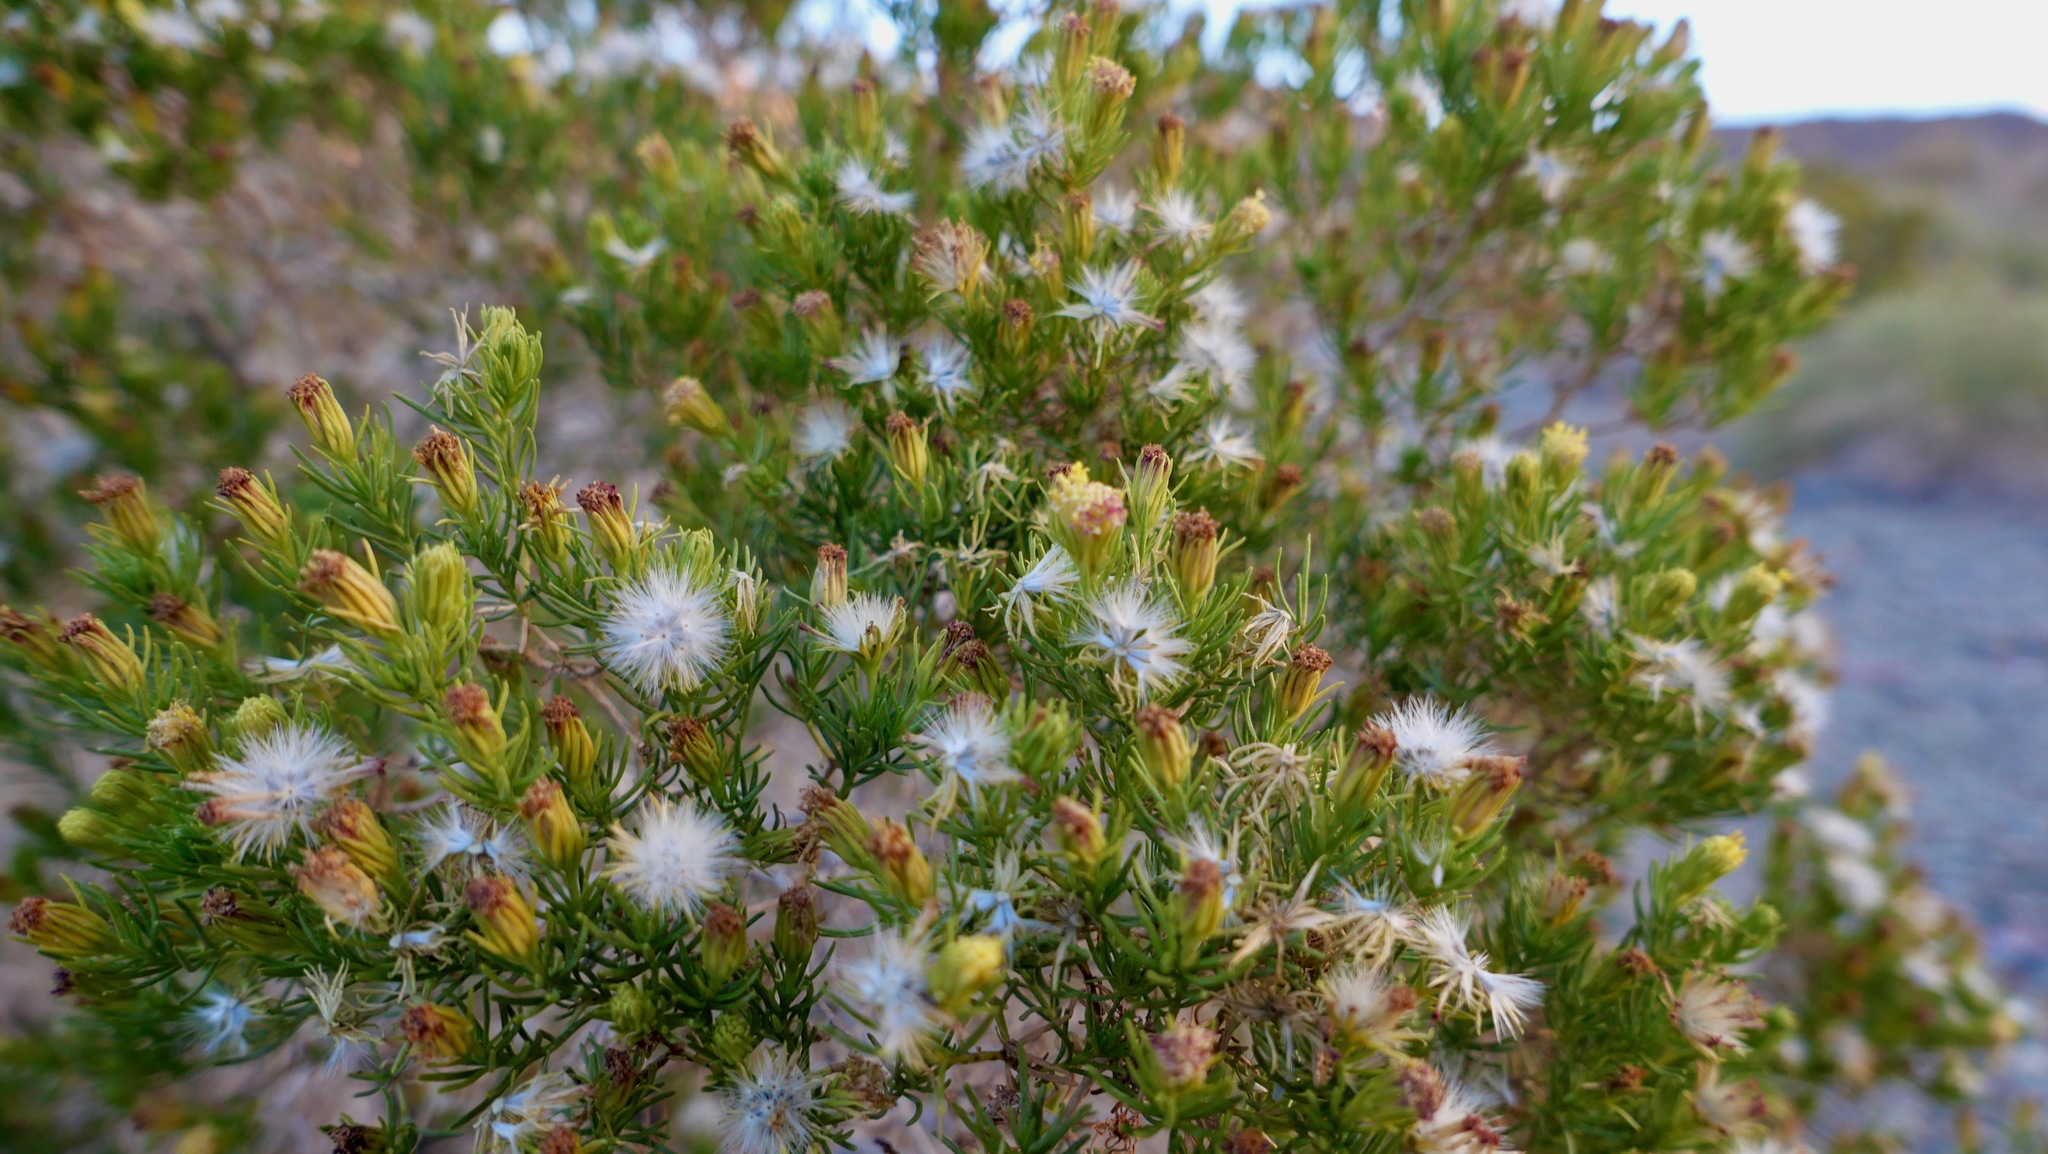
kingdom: Plantae
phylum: Tracheophyta
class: Magnoliopsida
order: Asterales
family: Asteraceae
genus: Peucephyllum
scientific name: Peucephyllum schottii
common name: Pygmy-cedar
